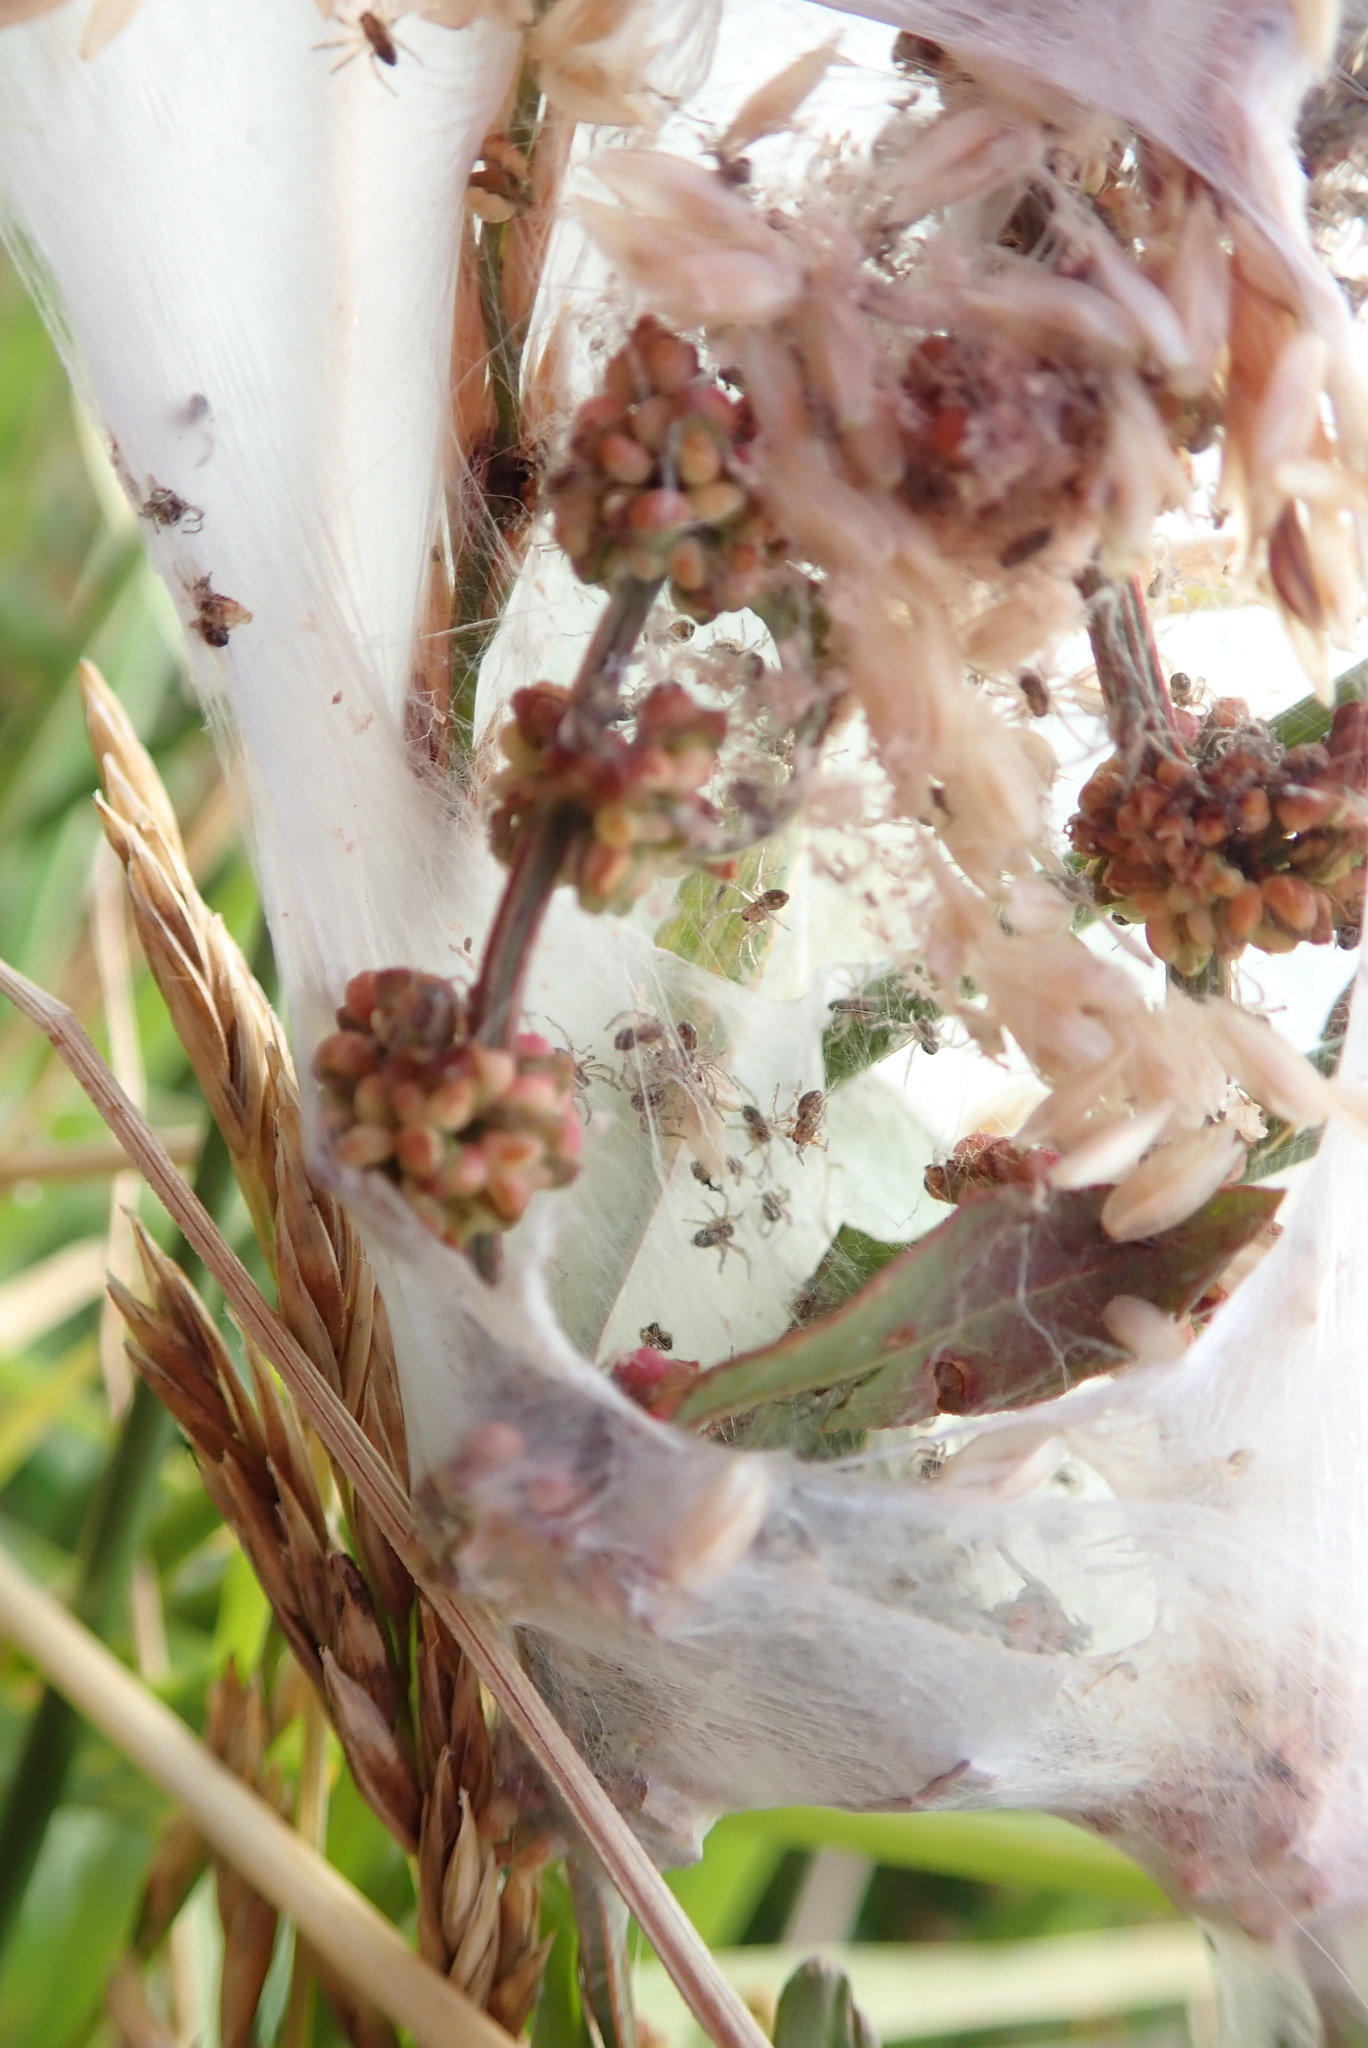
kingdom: Animalia
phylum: Arthropoda
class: Arachnida
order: Araneae
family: Pisauridae
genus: Dolomedes
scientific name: Dolomedes minor
